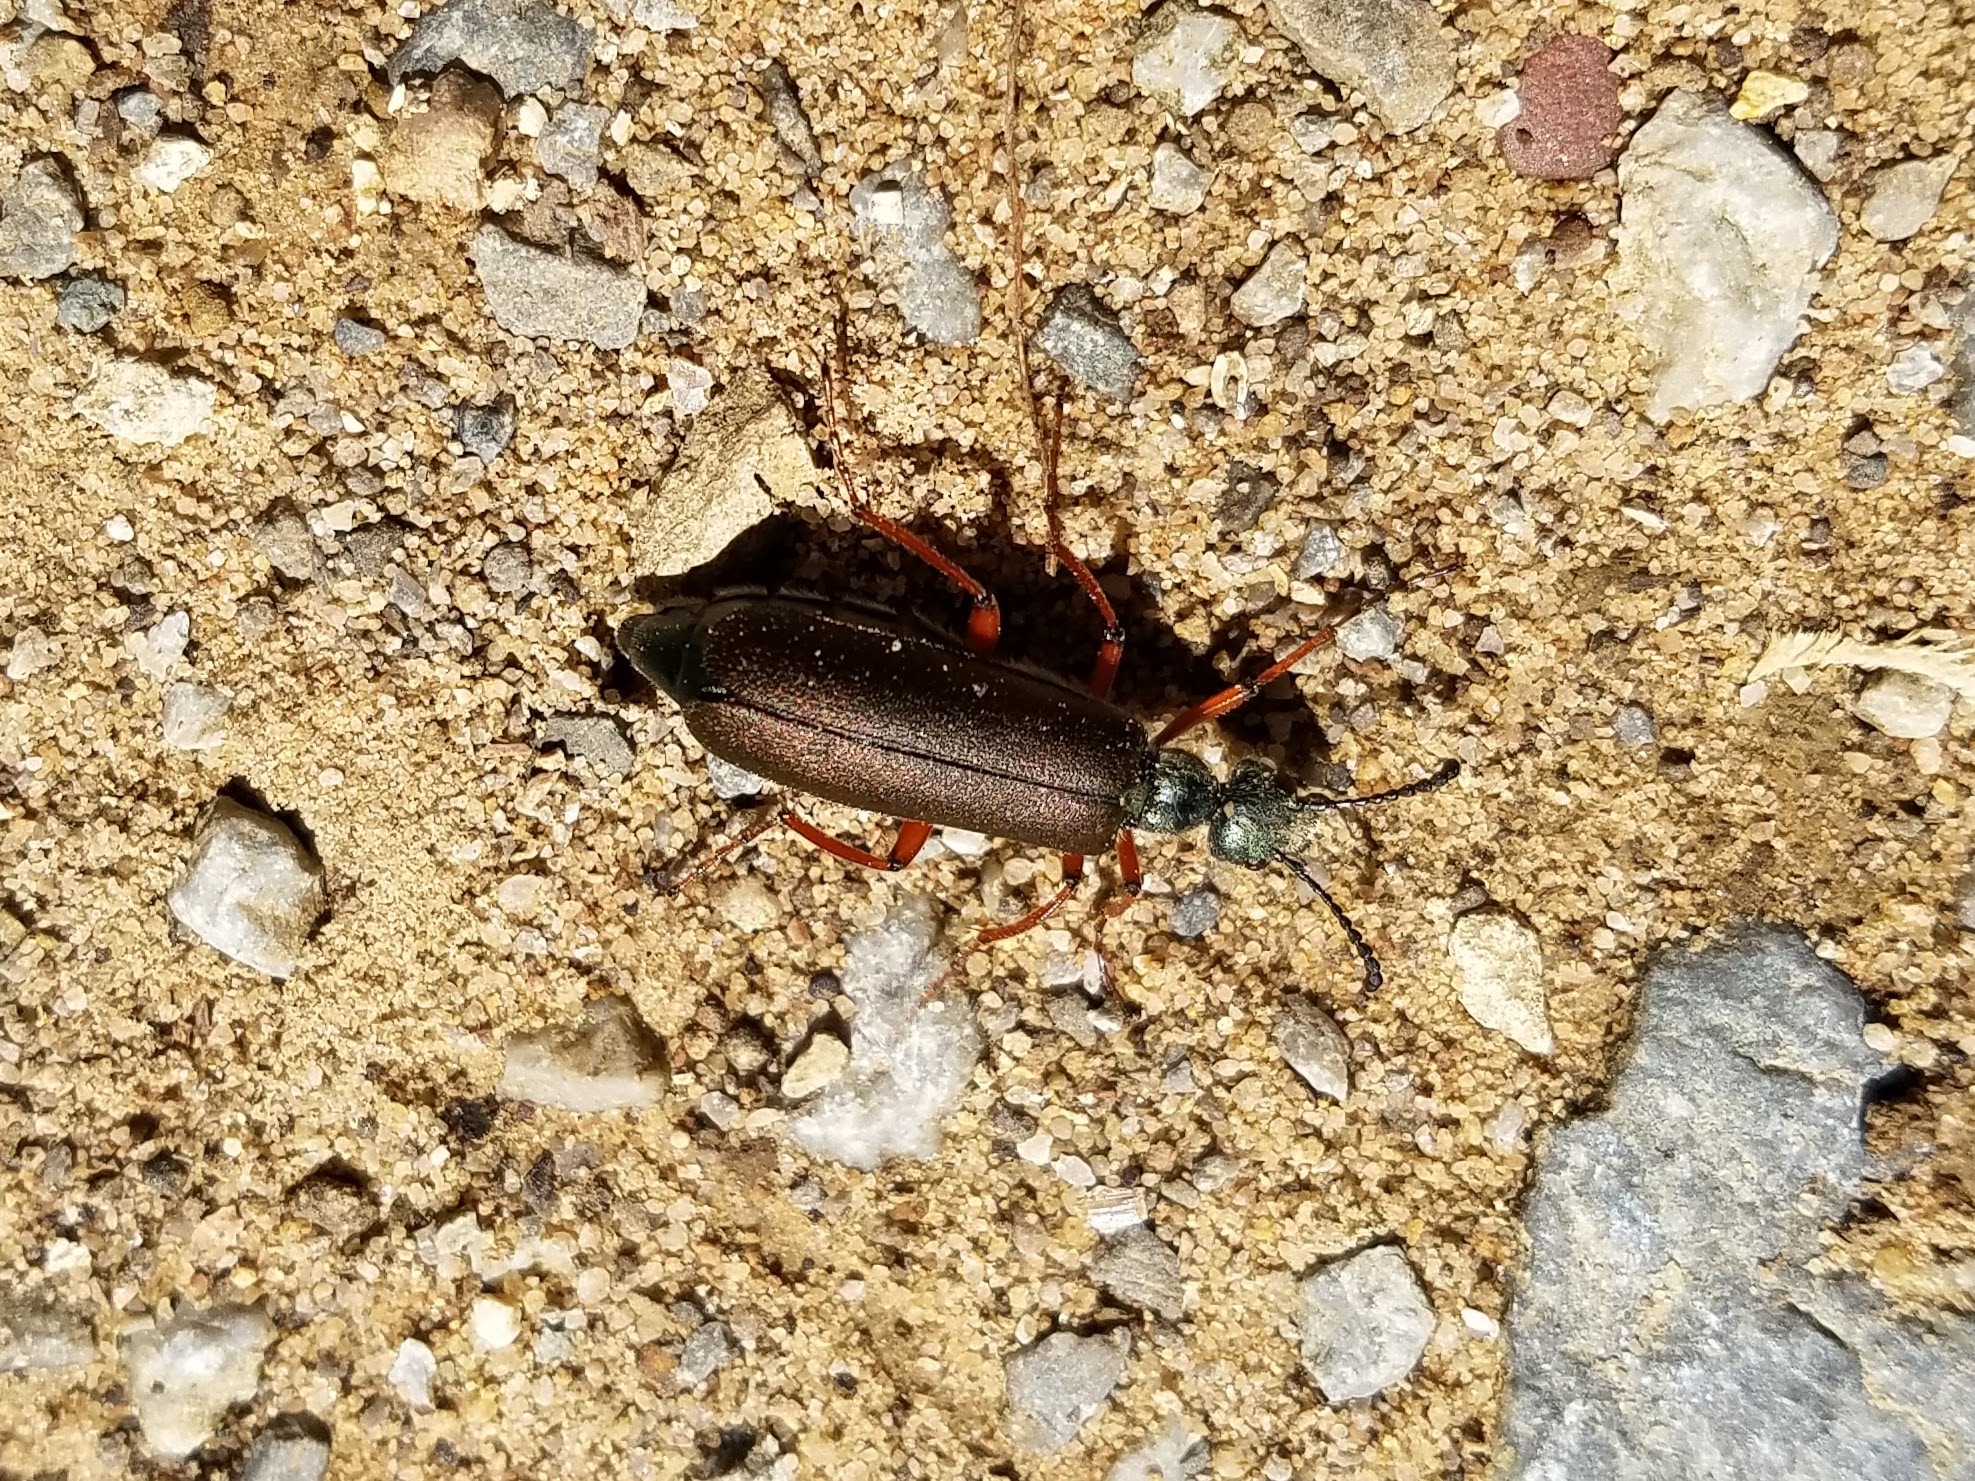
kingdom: Animalia
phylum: Arthropoda
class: Insecta
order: Coleoptera
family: Meloidae
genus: Lytta
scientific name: Lytta aenea
